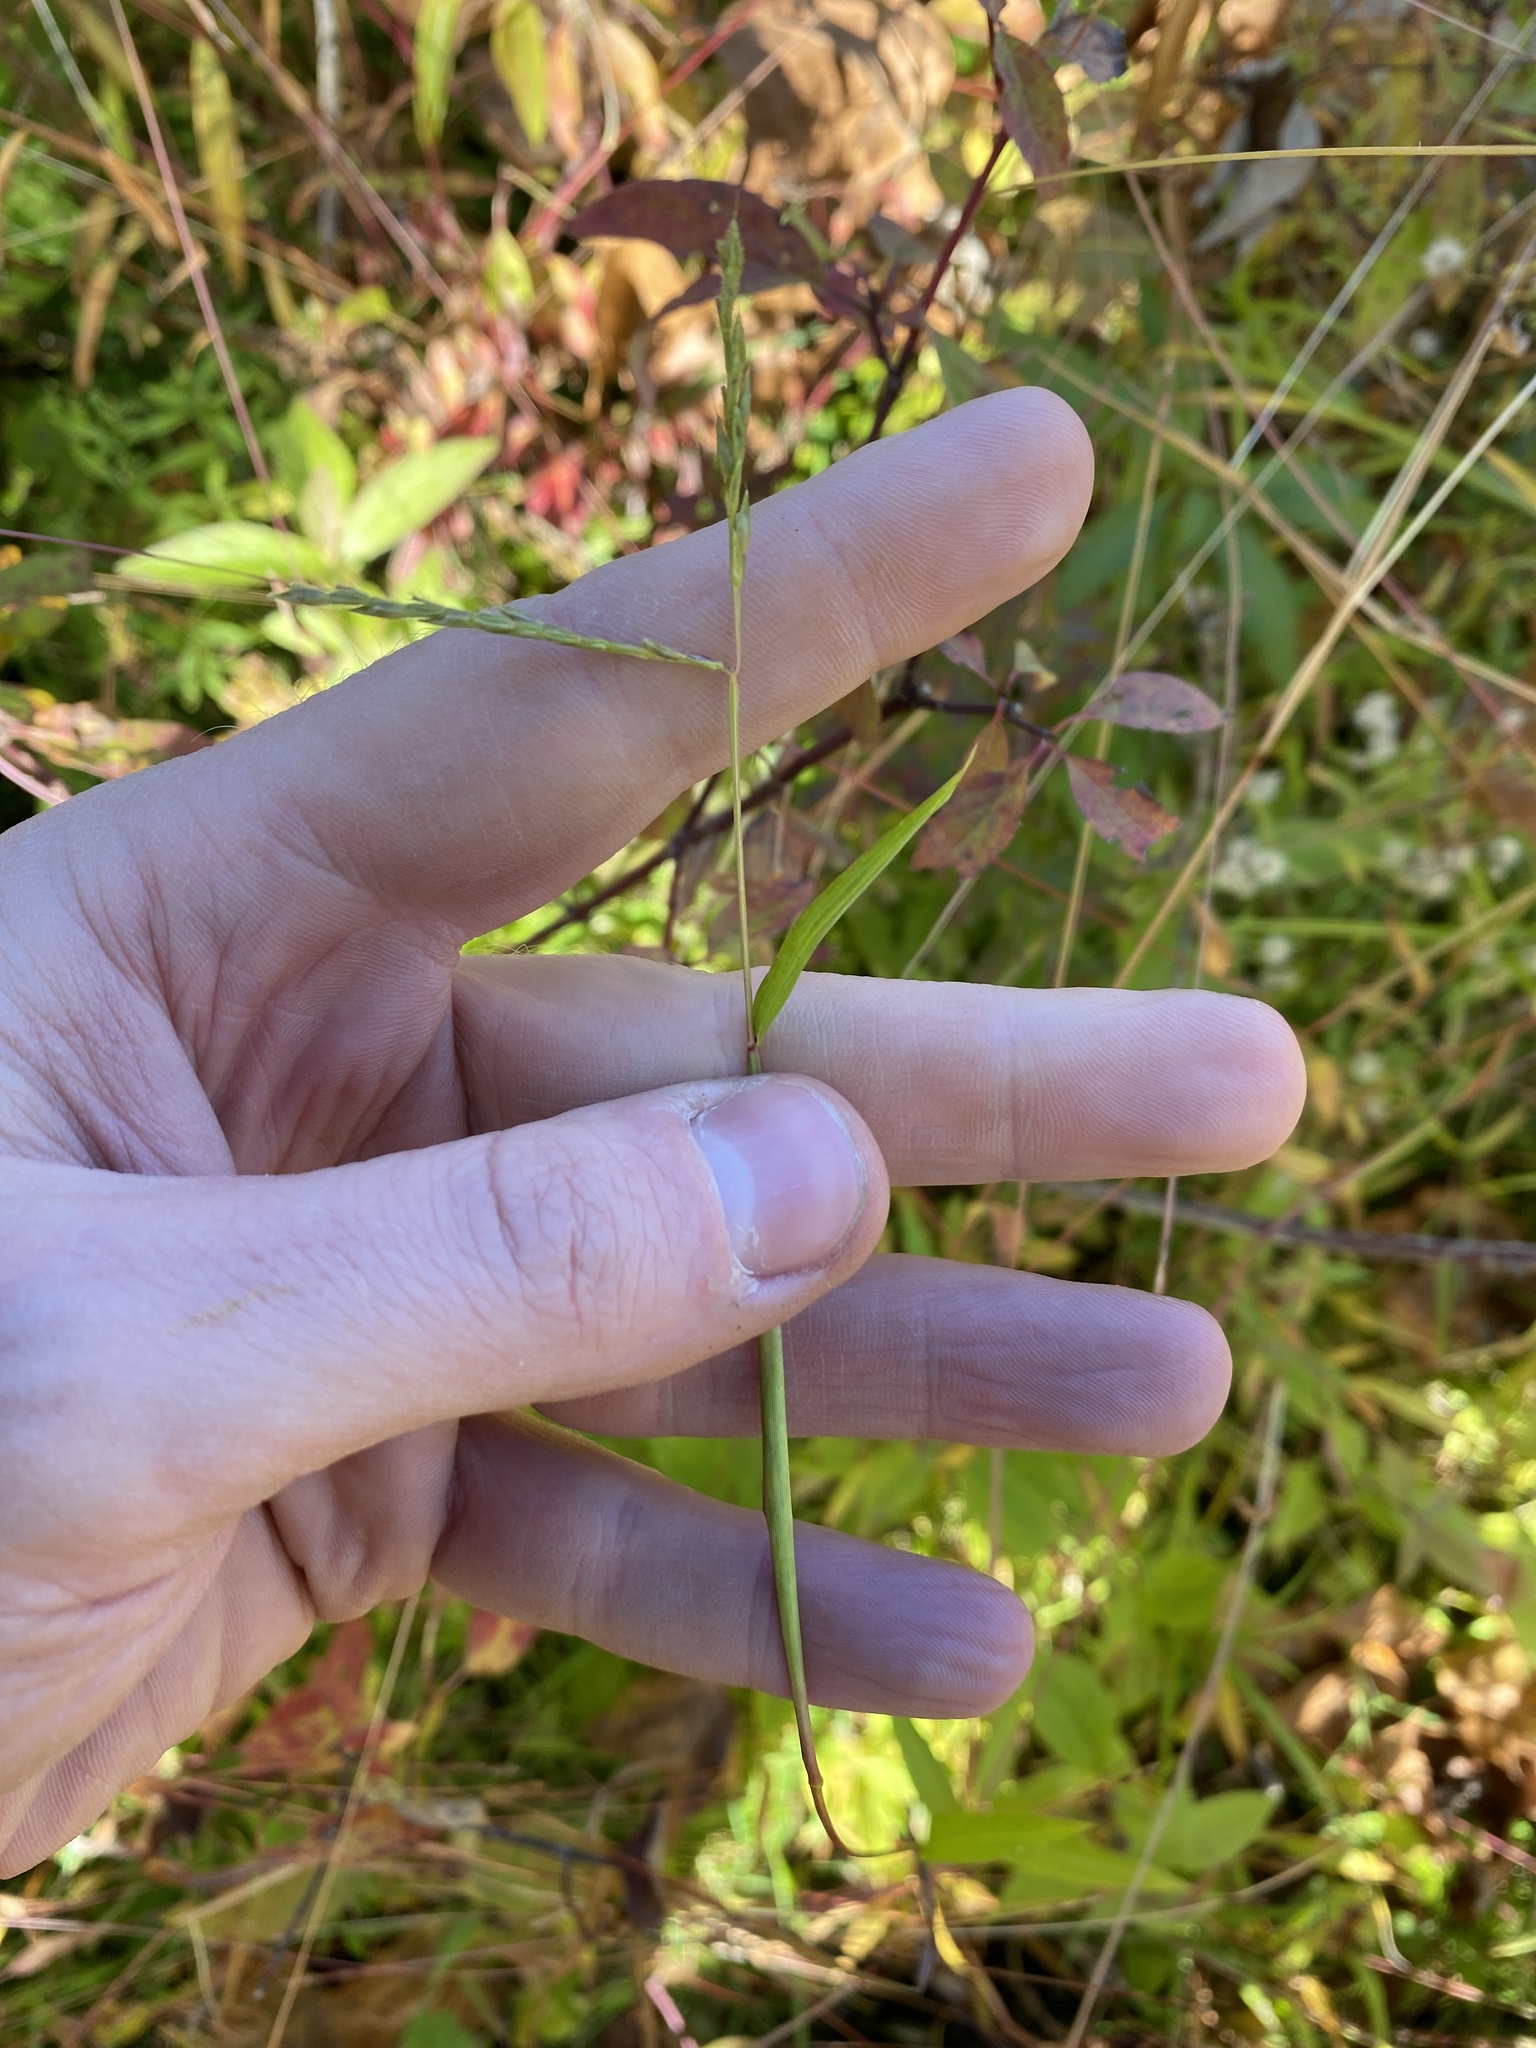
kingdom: Plantae
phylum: Tracheophyta
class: Liliopsida
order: Poales
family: Poaceae
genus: Microstegium
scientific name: Microstegium vimineum
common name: Japanese stiltgrass
